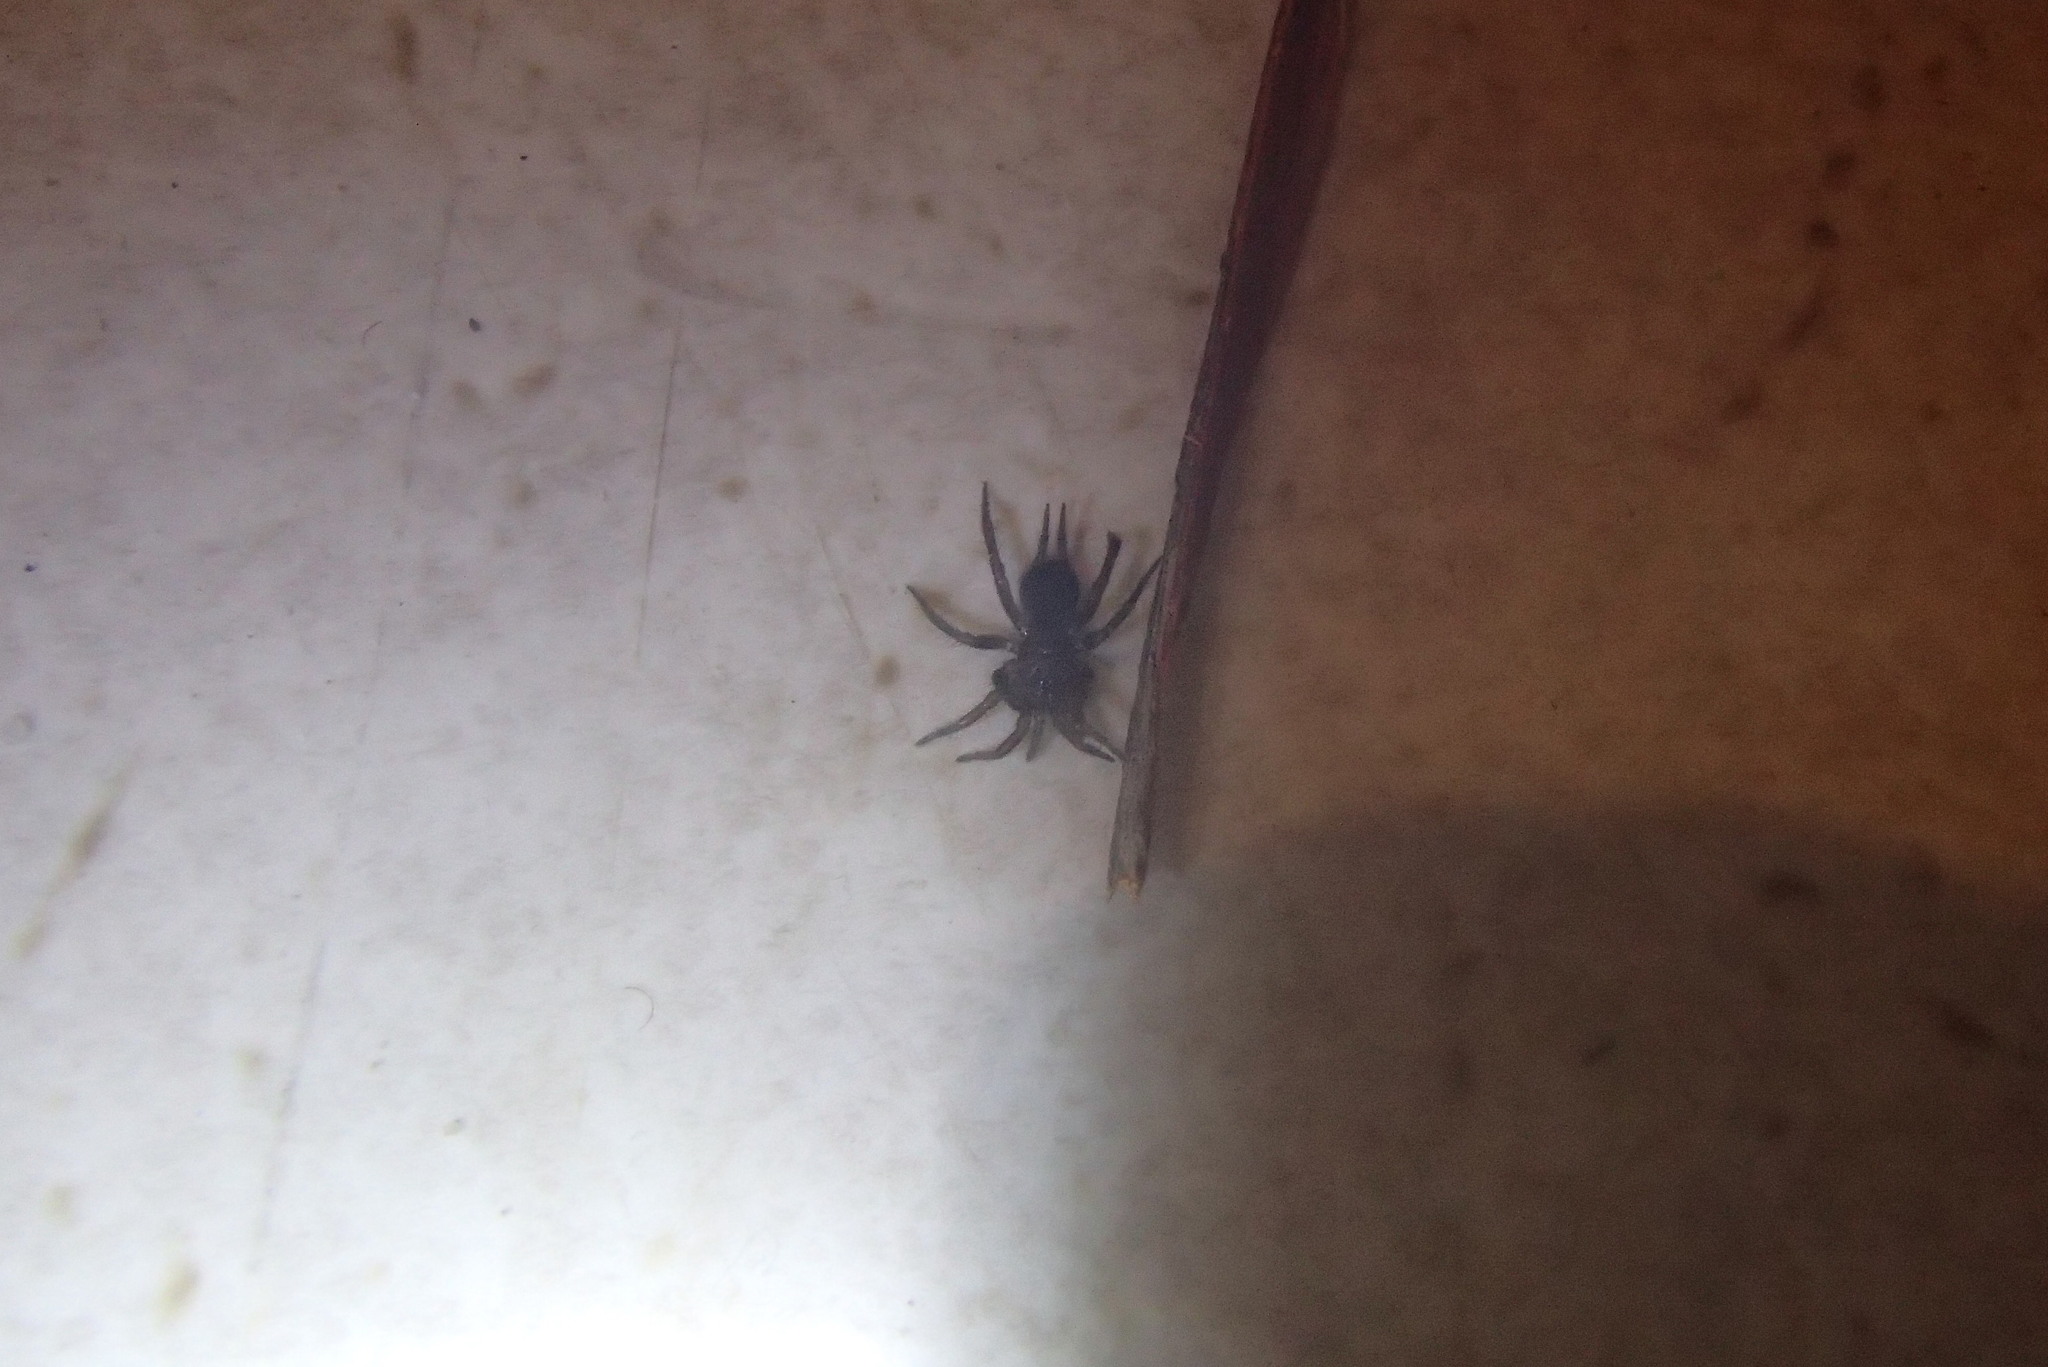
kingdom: Animalia
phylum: Arthropoda
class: Arachnida
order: Araneae
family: Euagridae
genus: Namirea
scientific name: Namirea fallax
